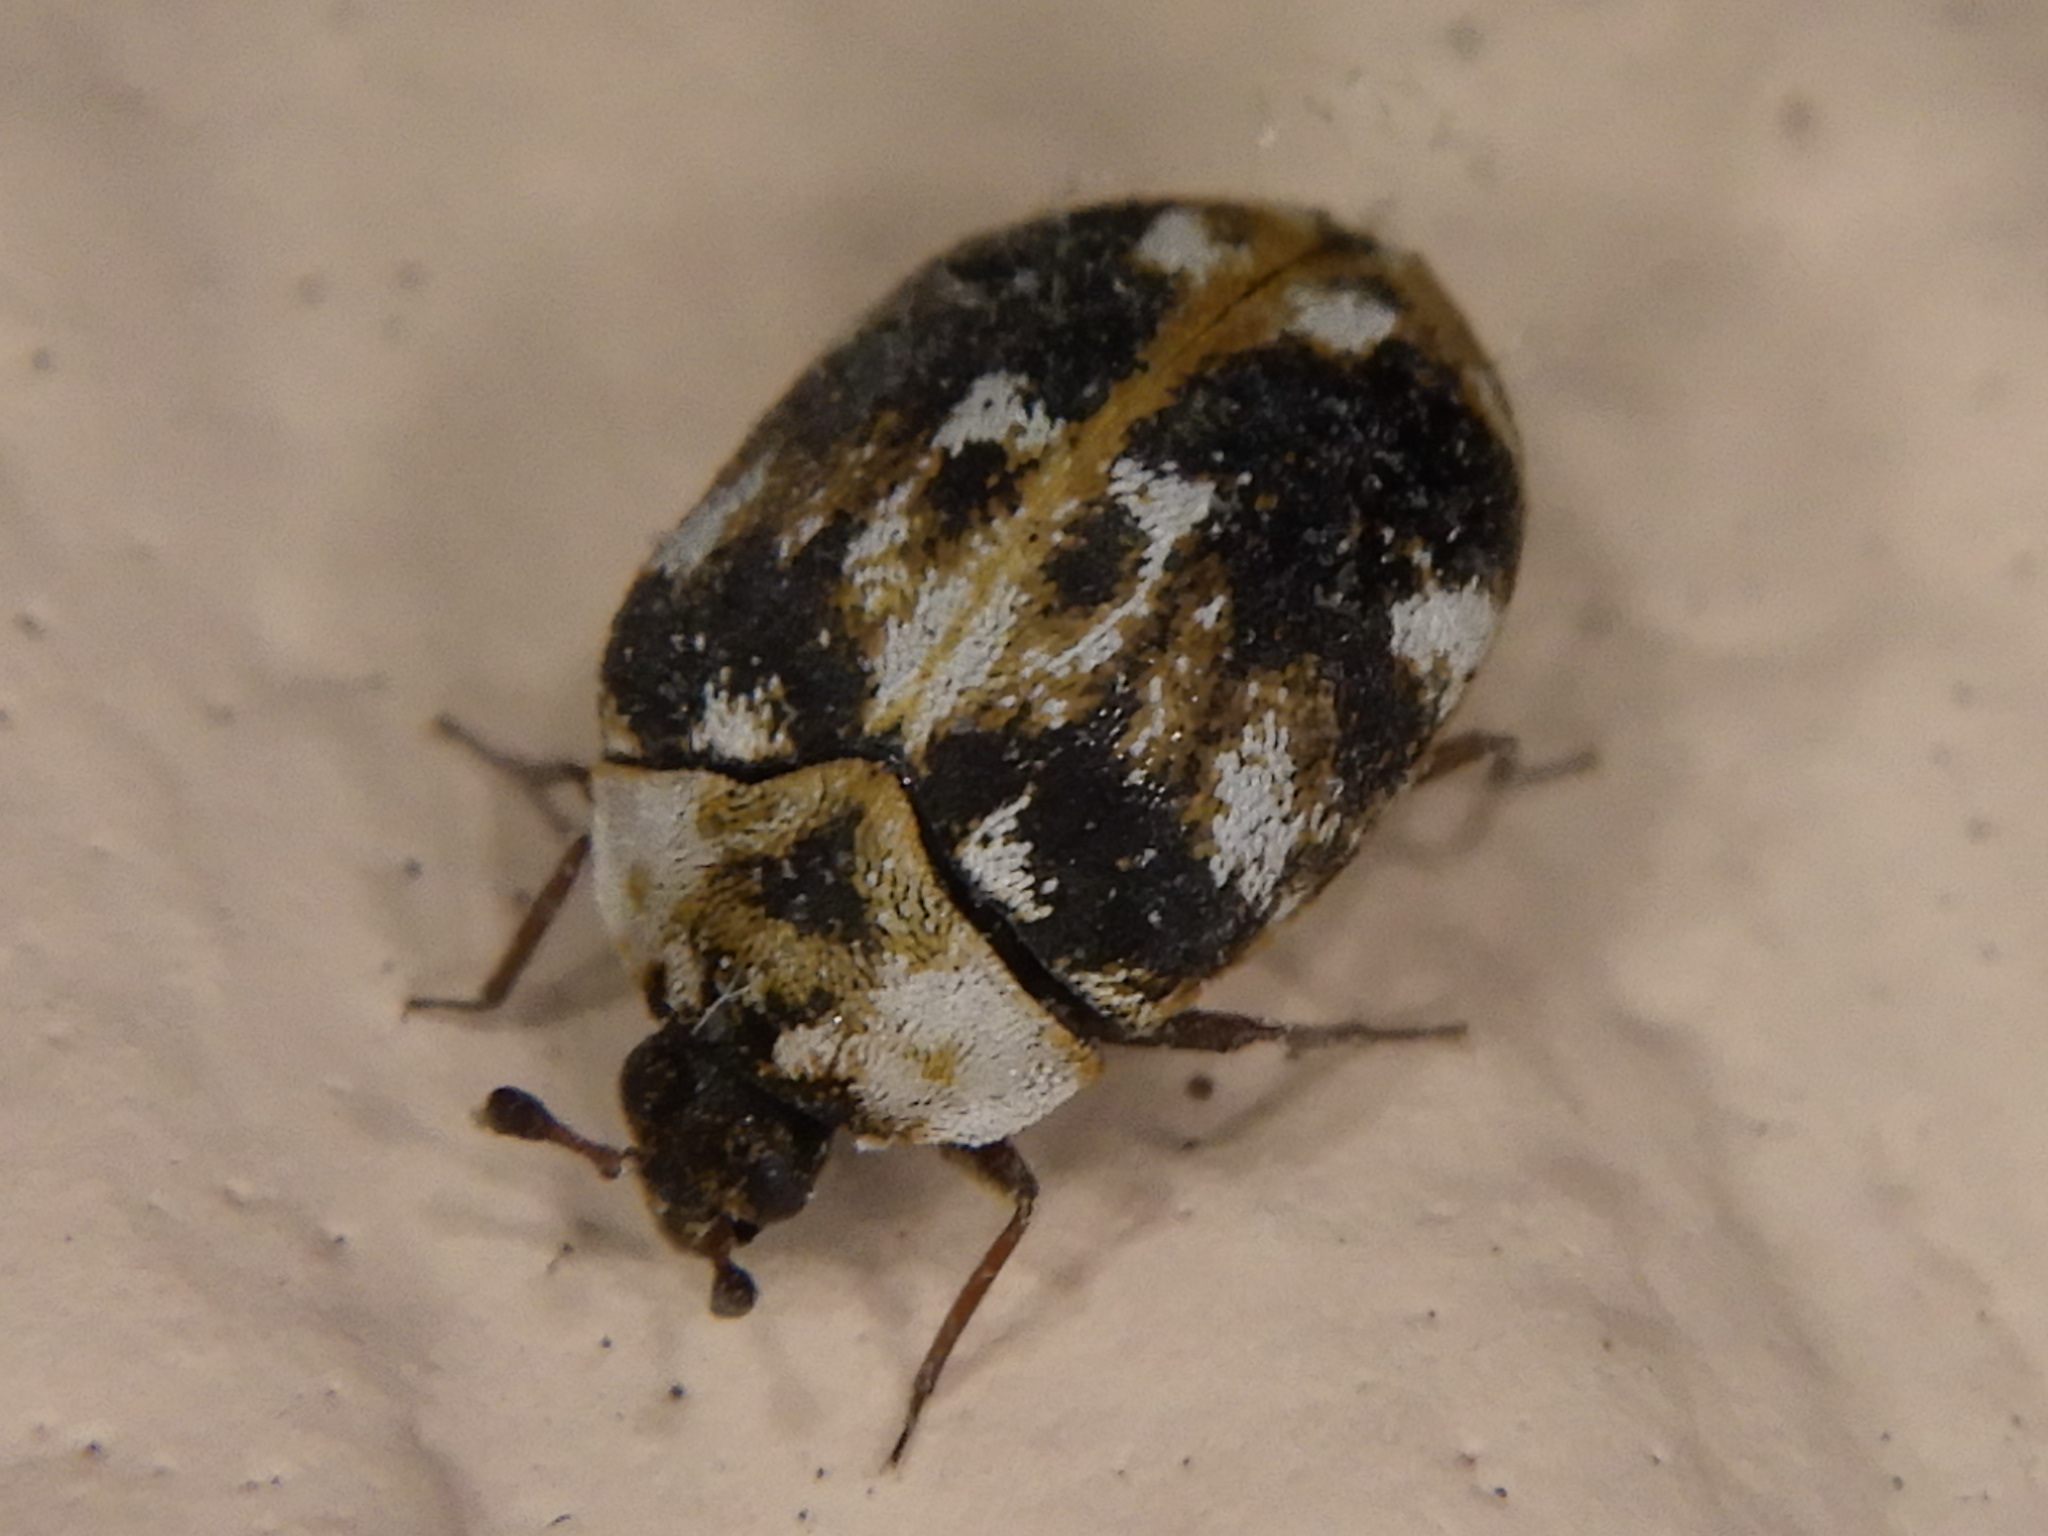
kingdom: Animalia
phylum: Arthropoda
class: Insecta
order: Coleoptera
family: Dermestidae
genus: Anthrenus
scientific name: Anthrenus picturatus
